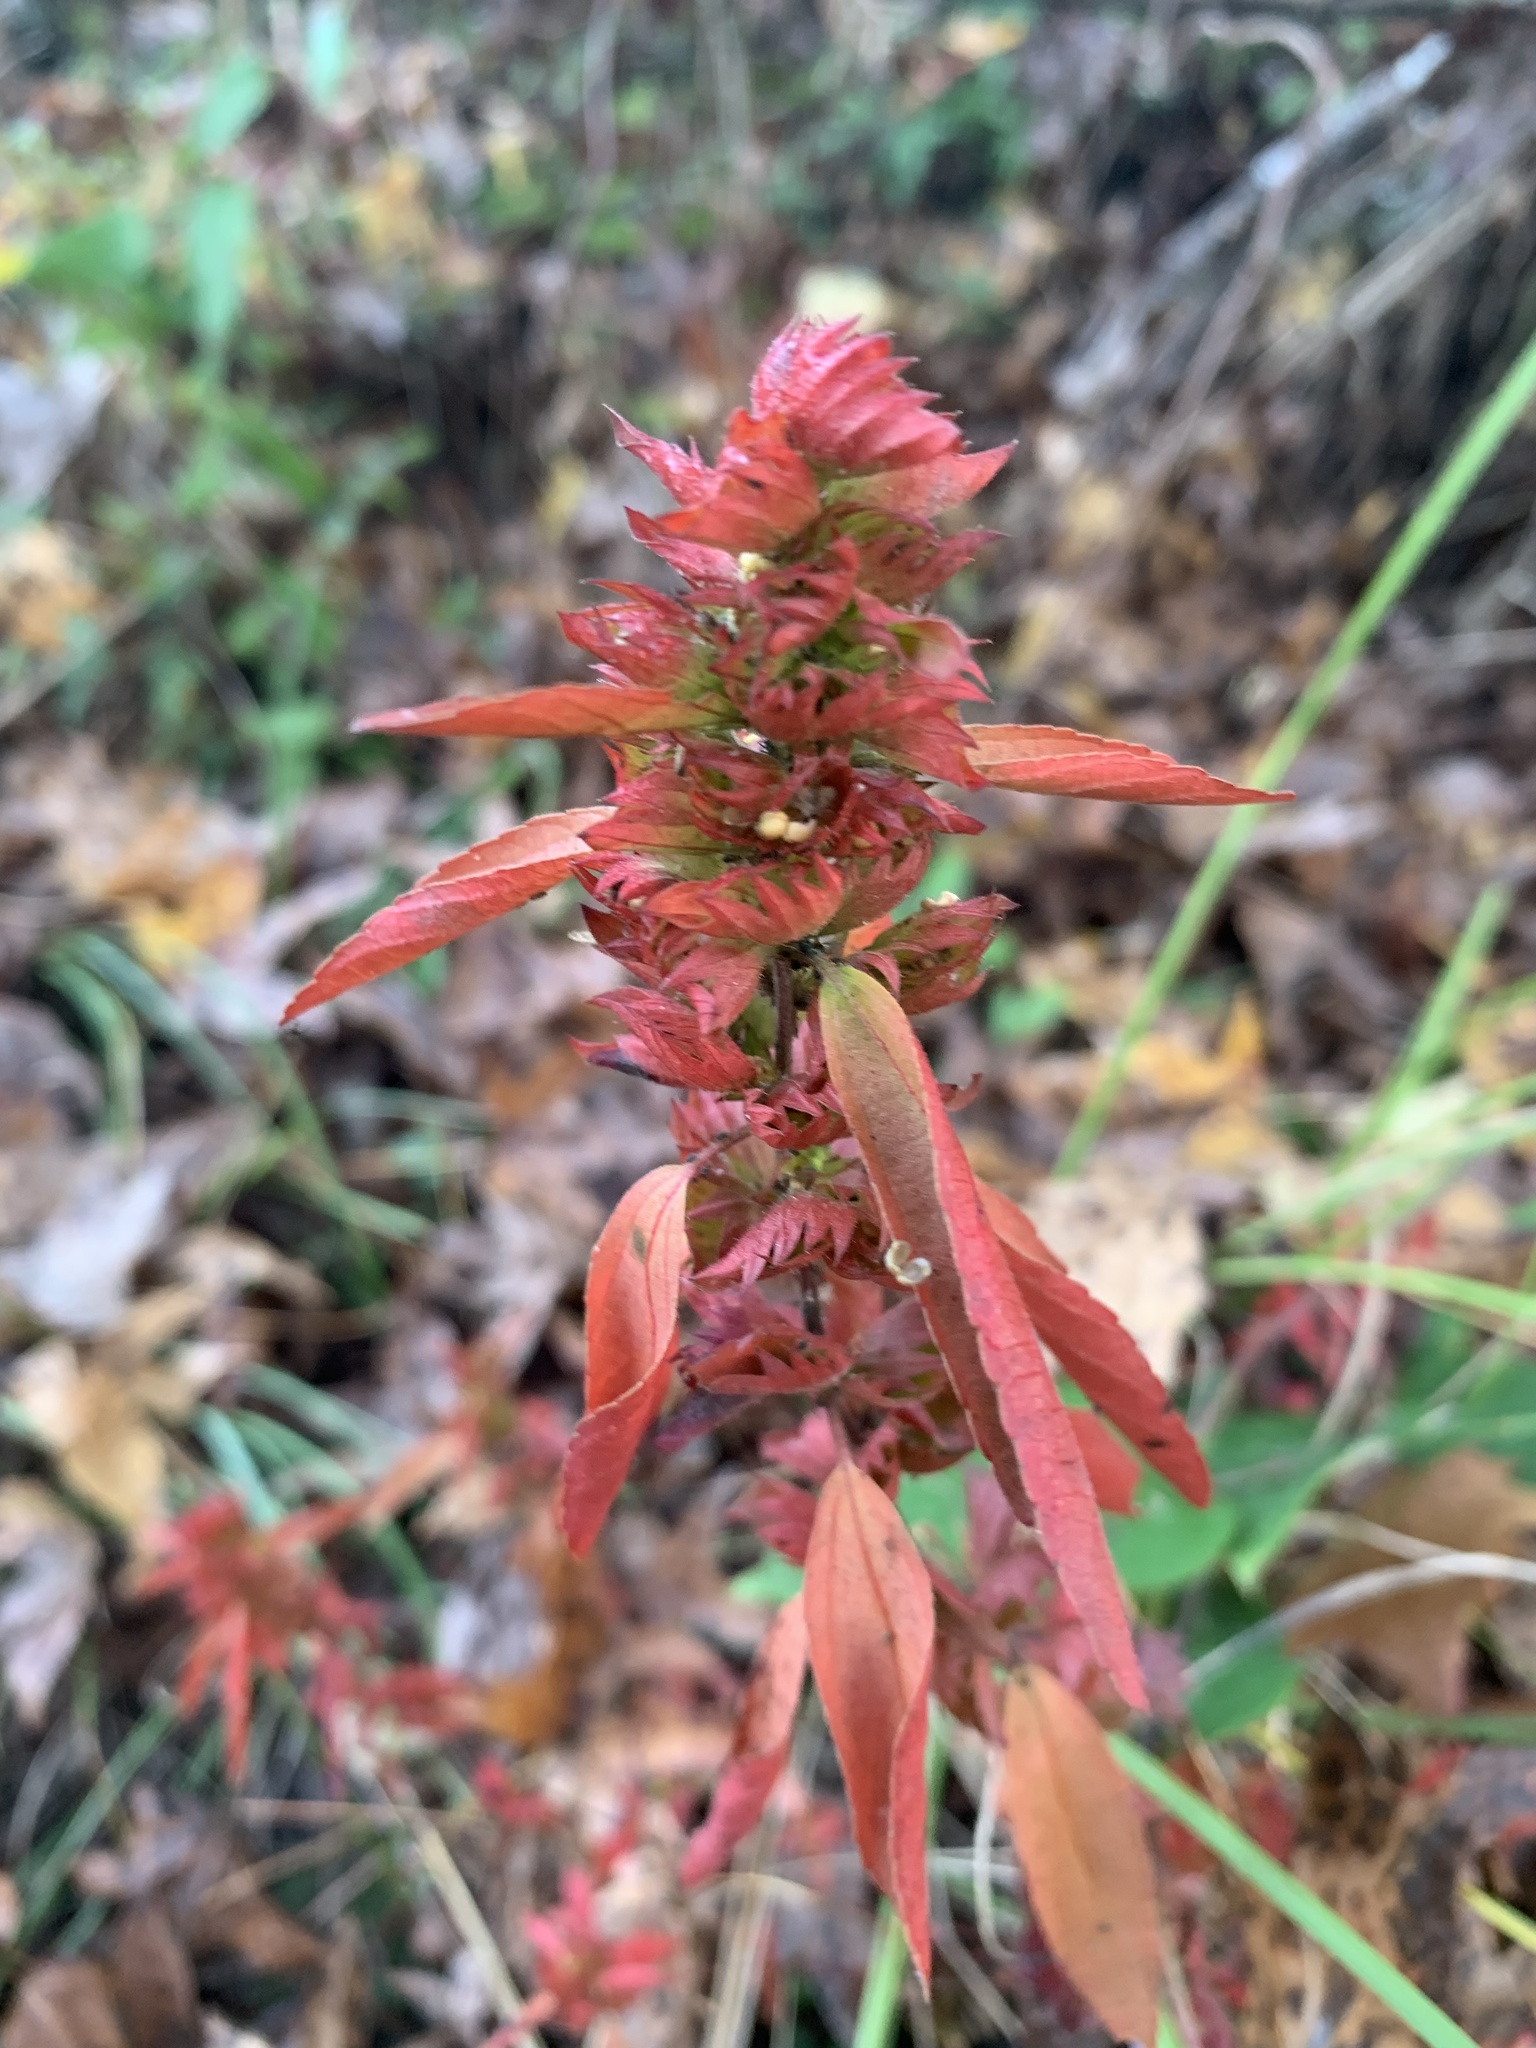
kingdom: Plantae
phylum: Tracheophyta
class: Magnoliopsida
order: Malpighiales
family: Euphorbiaceae
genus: Acalypha
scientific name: Acalypha gracilens
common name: Slender three-seeded mercury
